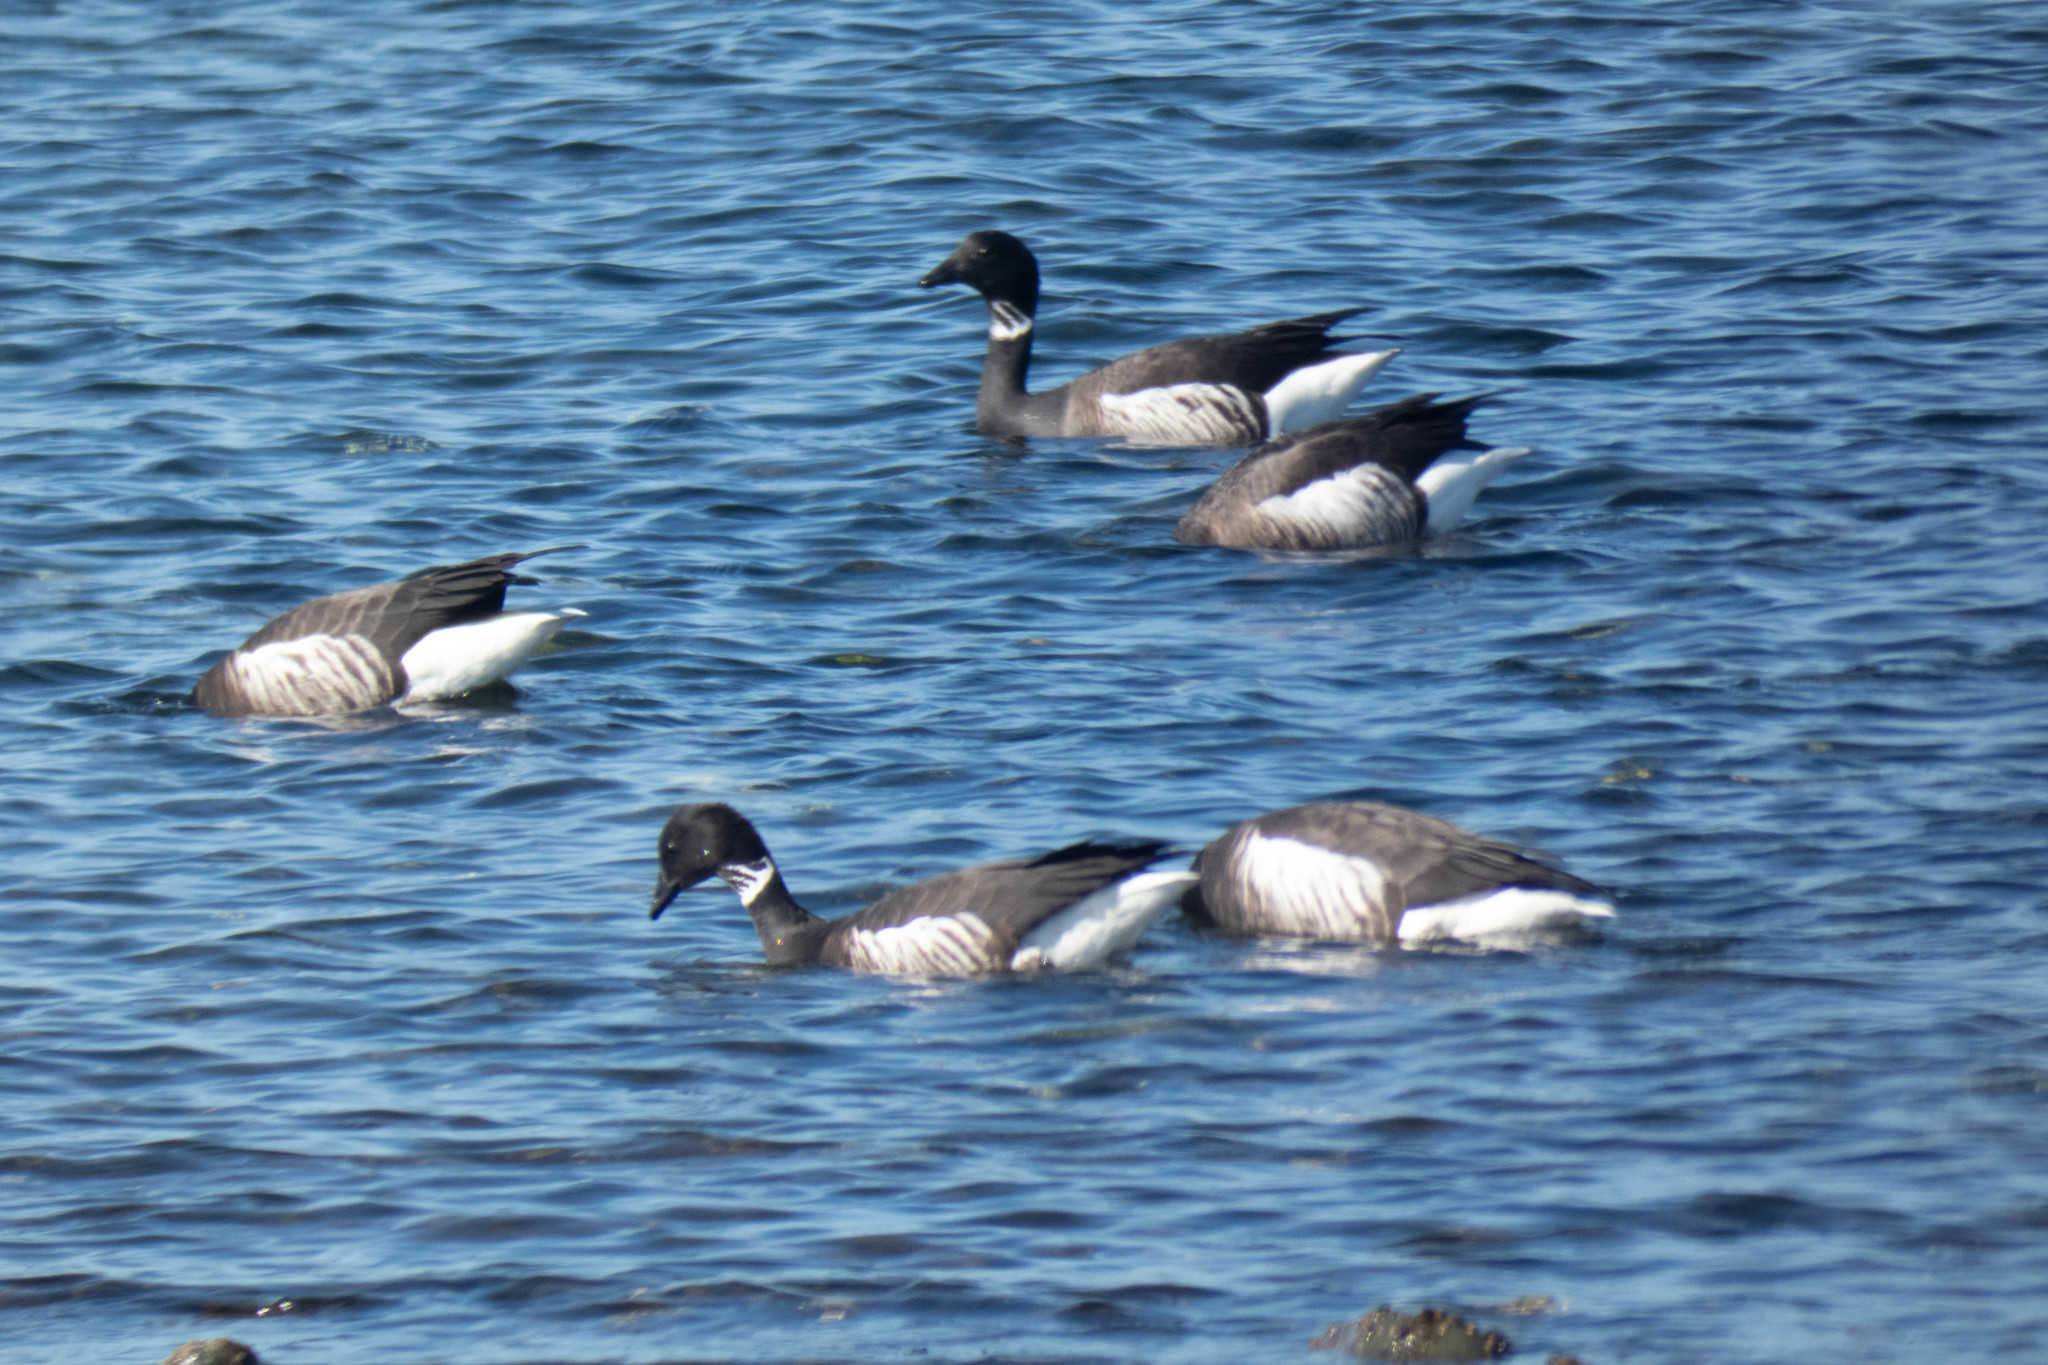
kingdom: Animalia
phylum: Chordata
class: Aves
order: Anseriformes
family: Anatidae
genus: Branta
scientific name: Branta bernicla
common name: Brant goose
